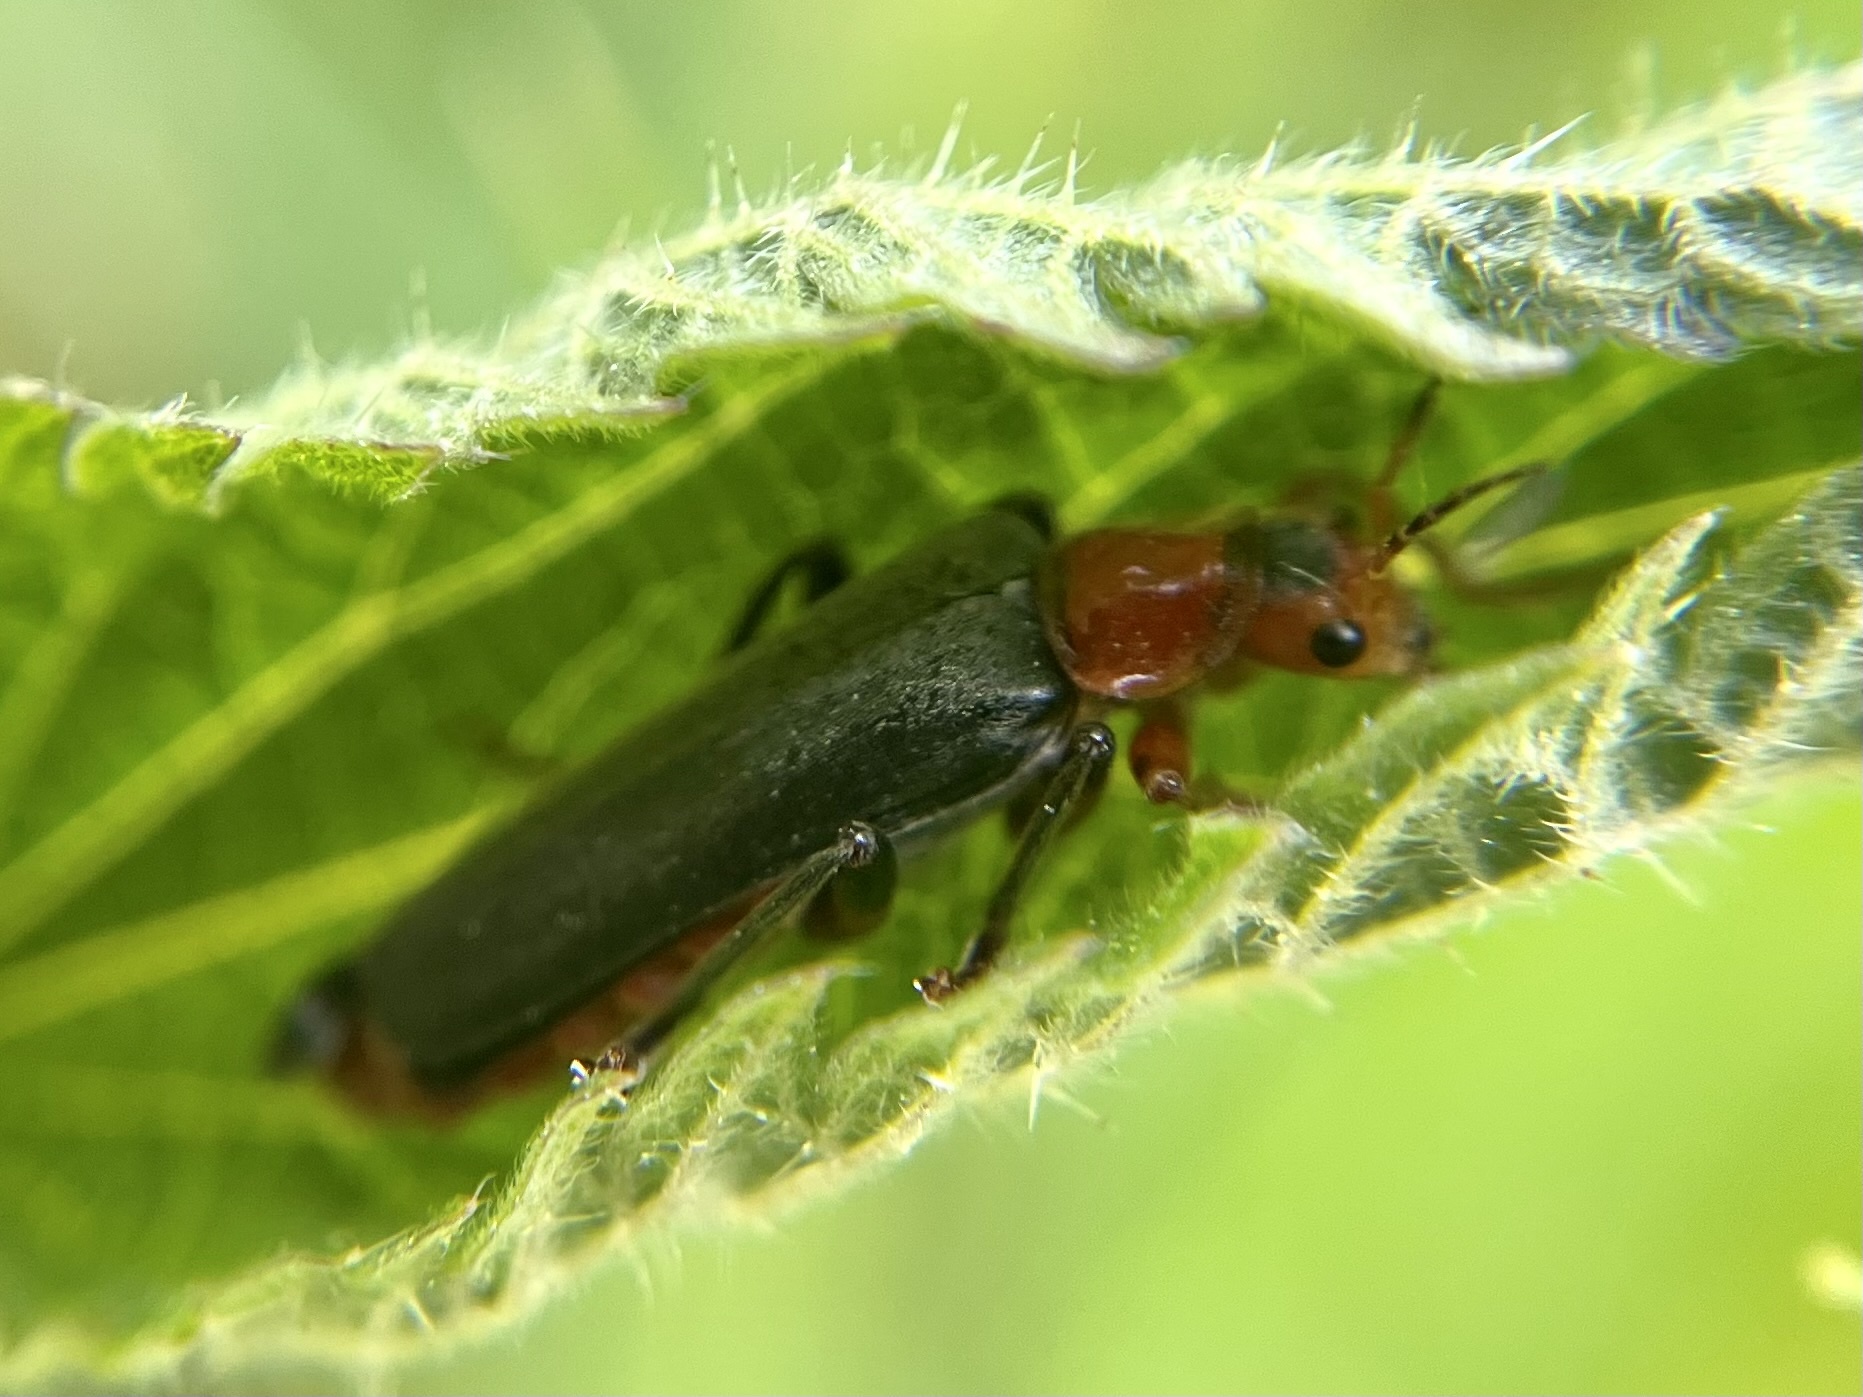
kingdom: Animalia
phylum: Arthropoda
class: Insecta
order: Coleoptera
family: Cantharidae
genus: Cantharis
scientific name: Cantharis livida
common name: Livid soldier beetle
